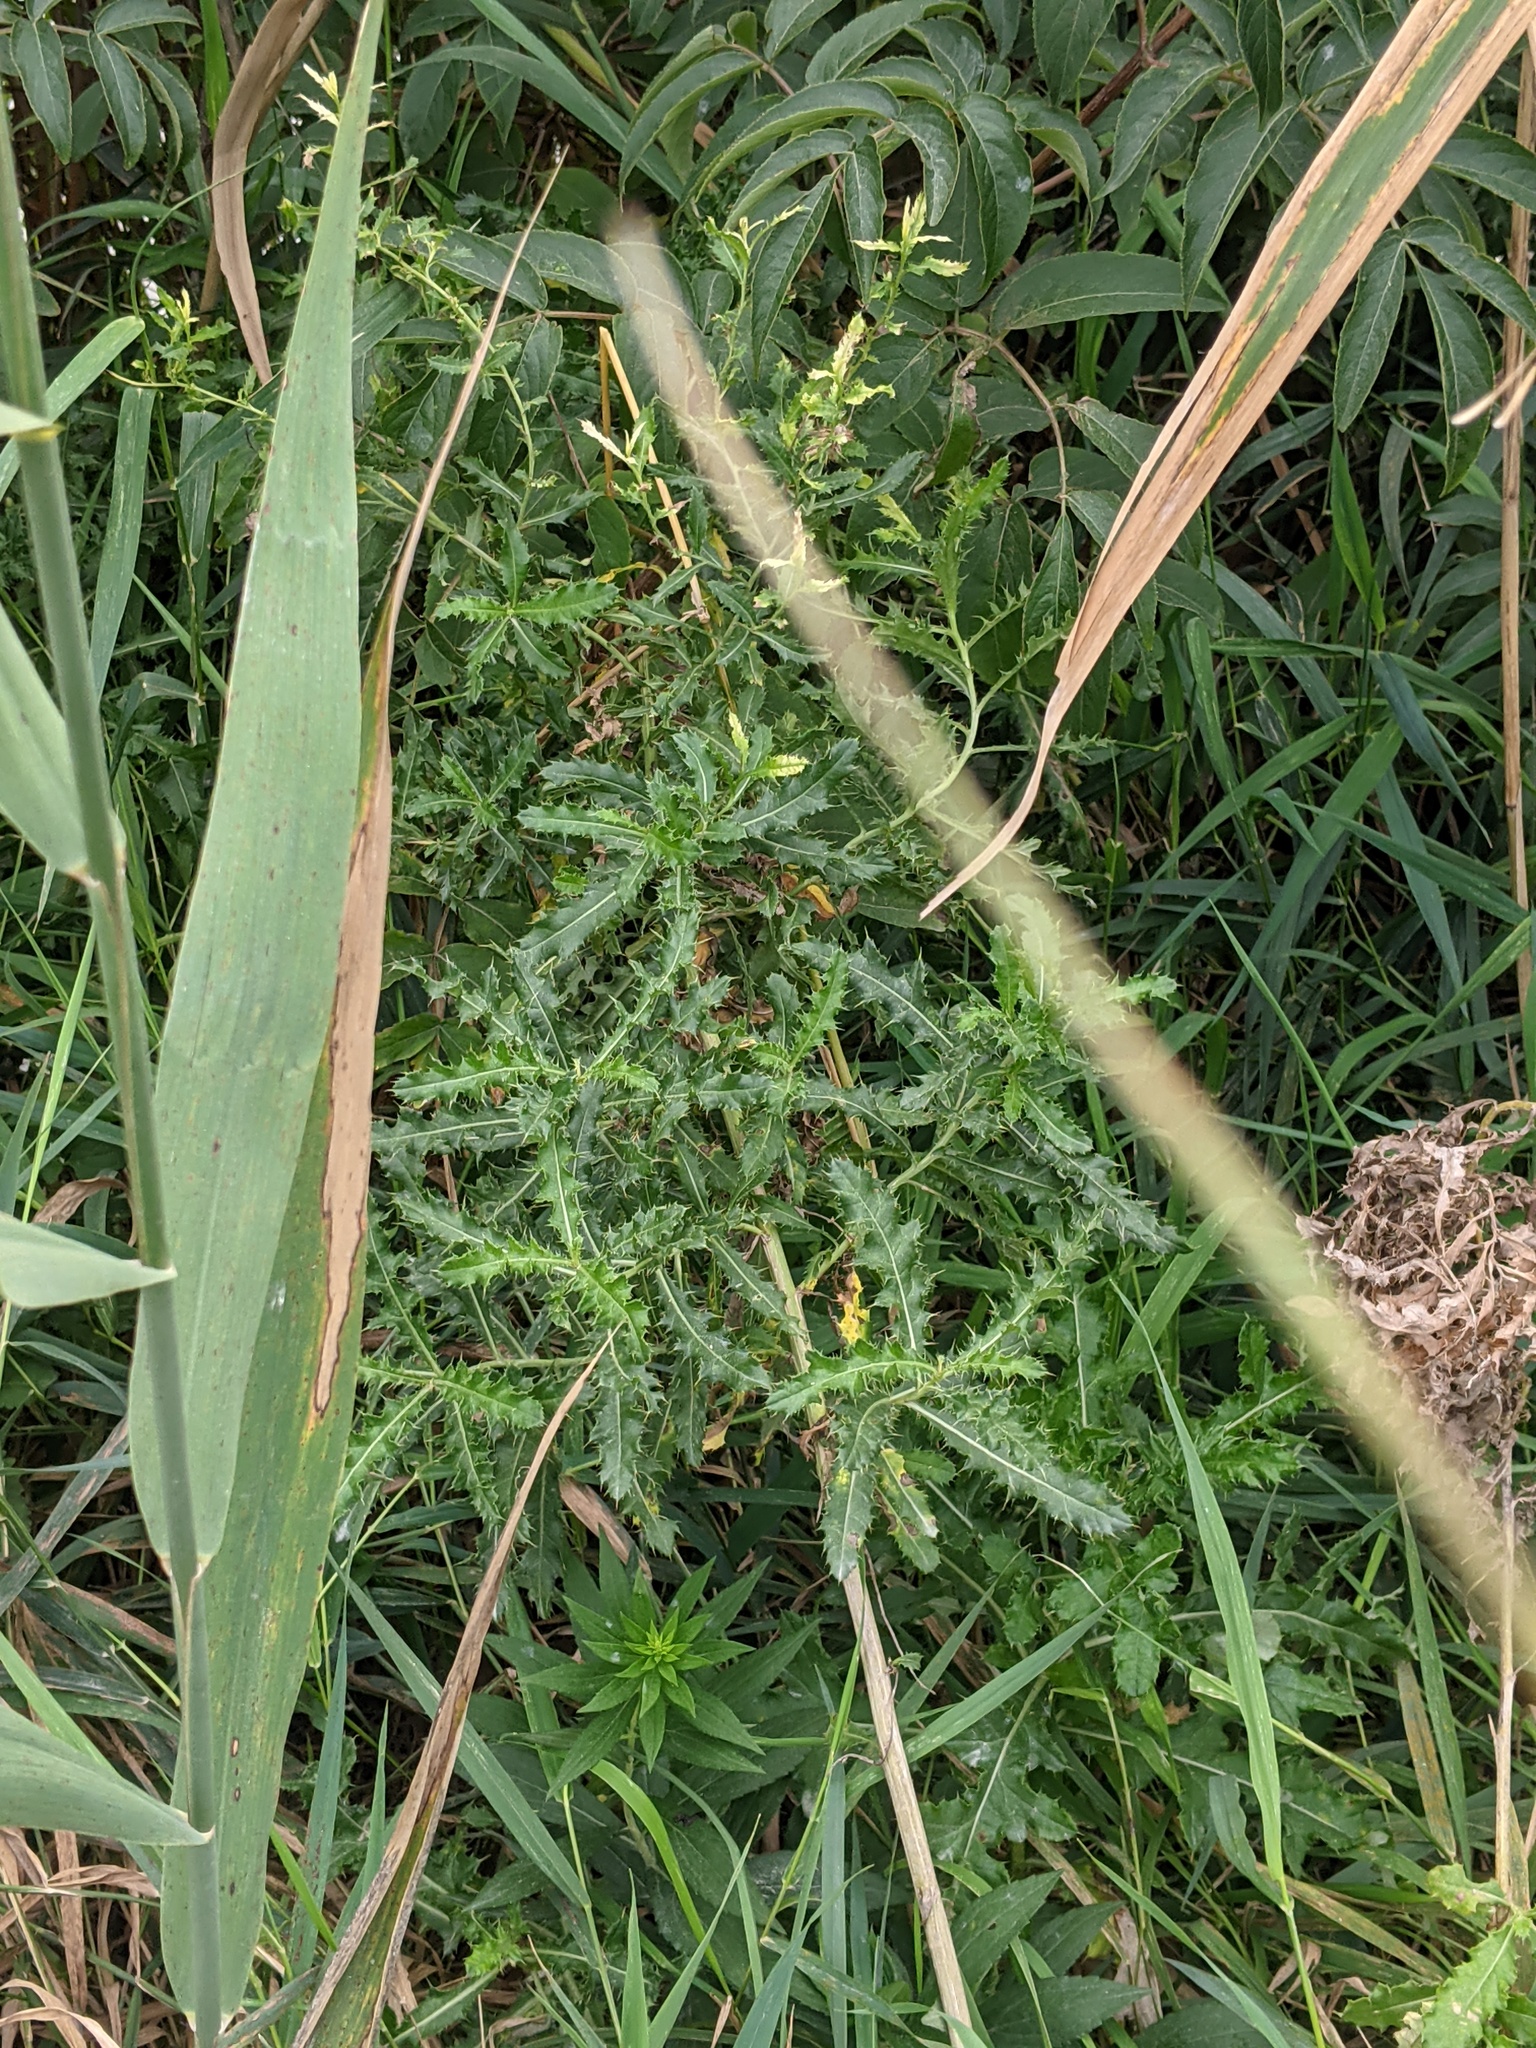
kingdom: Plantae
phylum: Tracheophyta
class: Magnoliopsida
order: Asterales
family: Asteraceae
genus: Cirsium
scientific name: Cirsium arvense
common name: Creeping thistle
